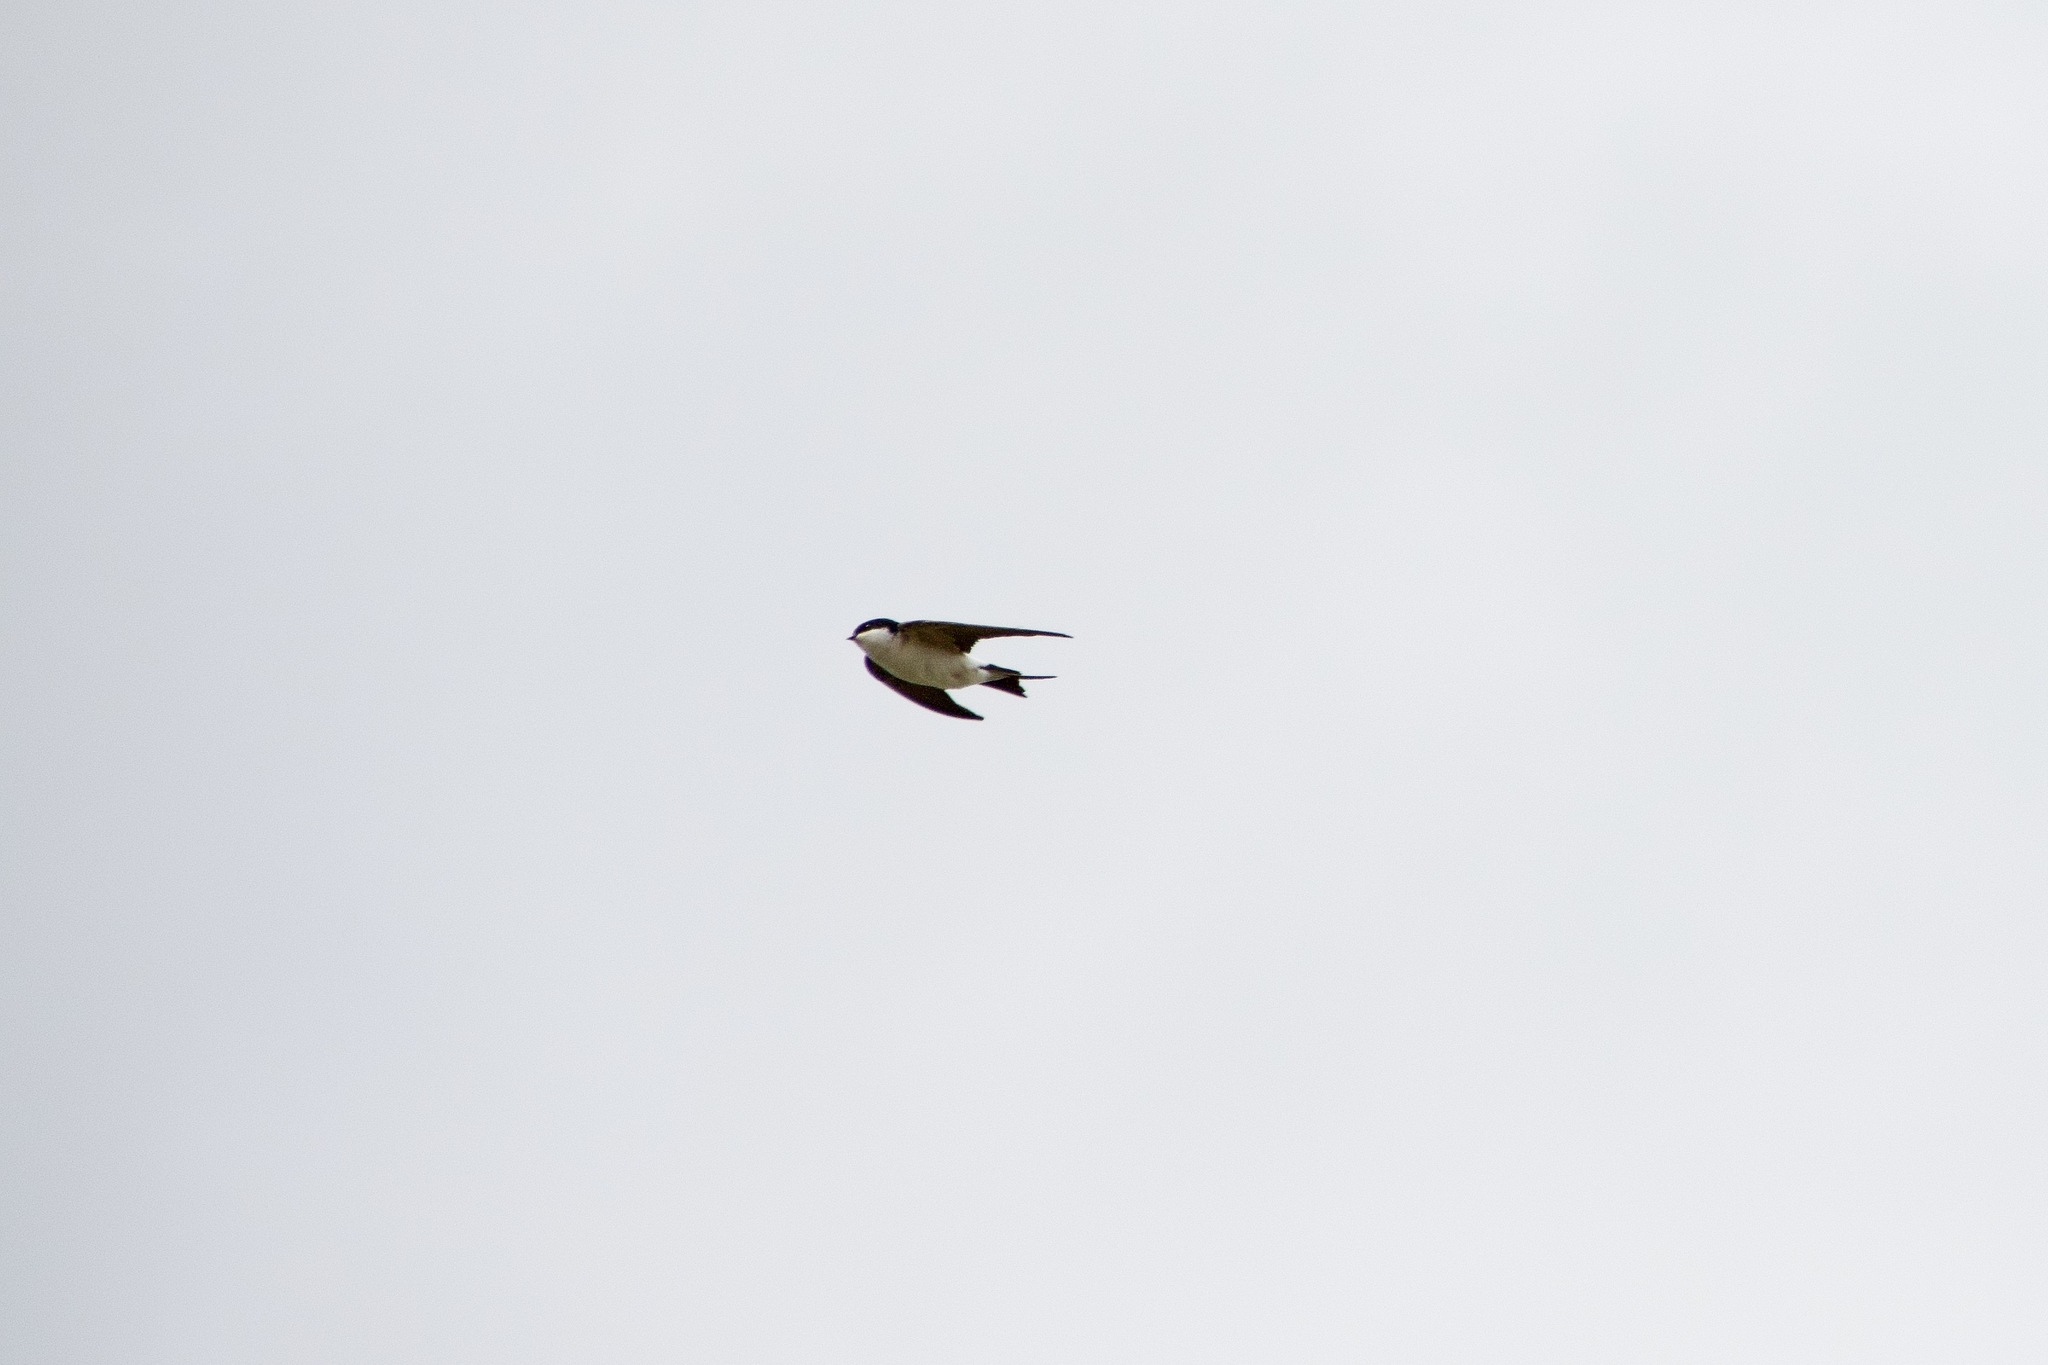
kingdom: Animalia
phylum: Chordata
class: Aves
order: Passeriformes
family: Hirundinidae
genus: Delichon
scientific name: Delichon urbicum
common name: Common house martin
